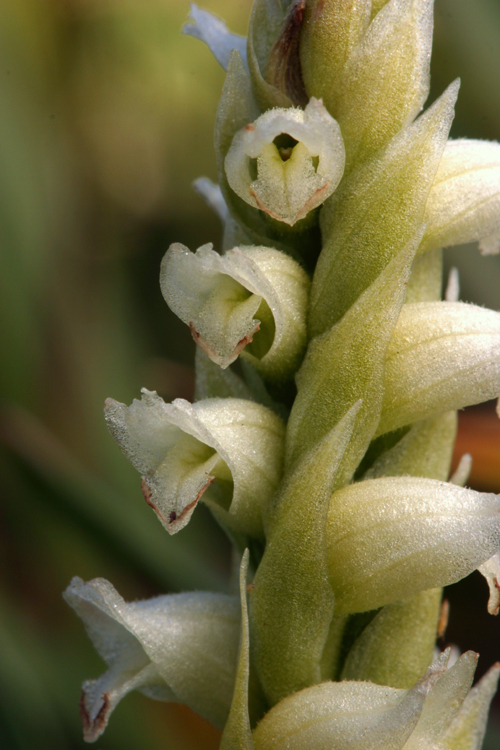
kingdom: Plantae
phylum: Tracheophyta
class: Liliopsida
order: Asparagales
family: Orchidaceae
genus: Spiranthes
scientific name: Spiranthes romanzoffiana
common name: Irish lady's-tresses
